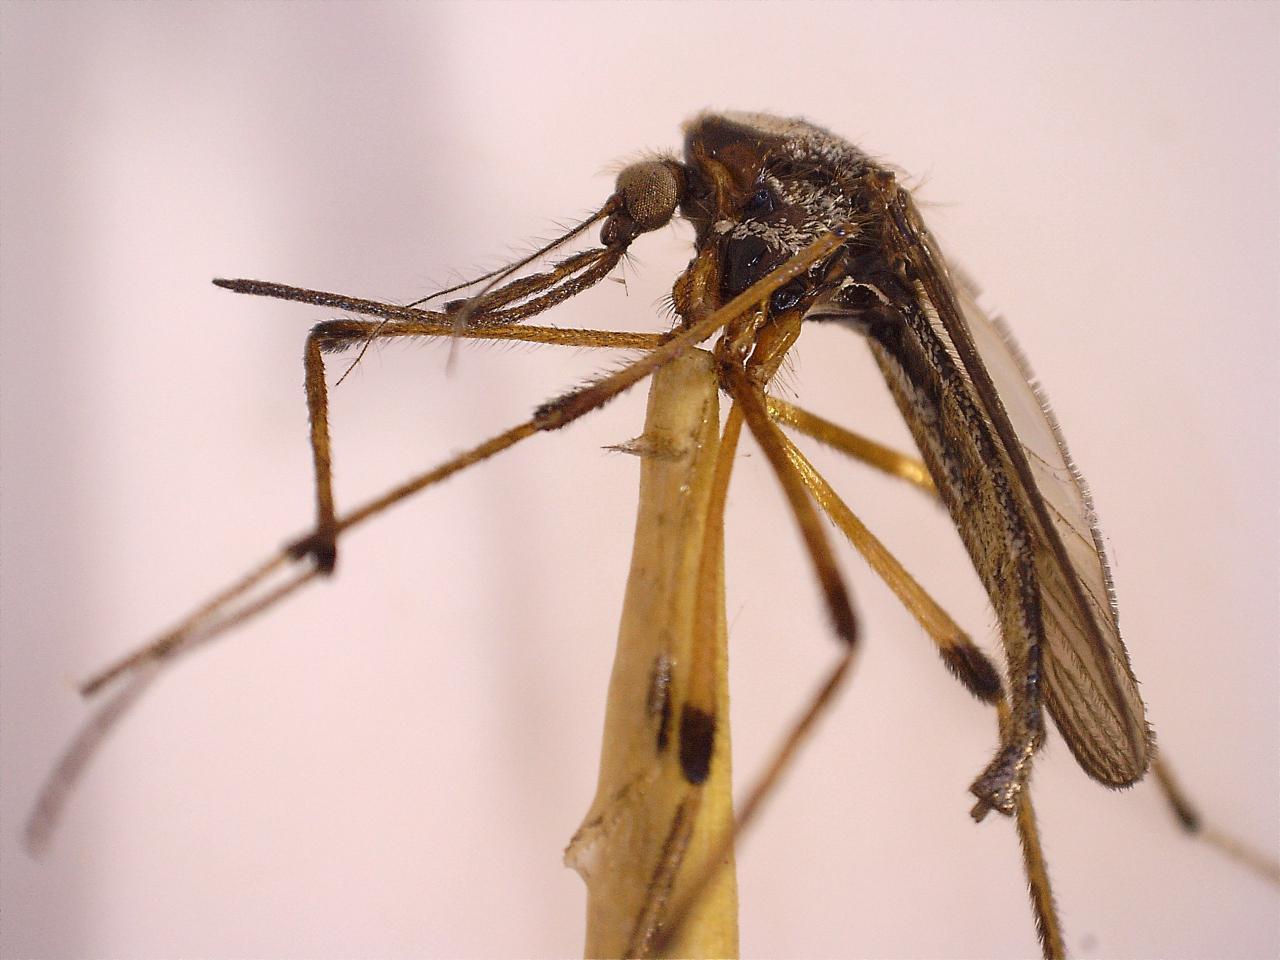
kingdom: Animalia
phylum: Arthropoda
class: Insecta
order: Diptera
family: Culicidae
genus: Psorophora
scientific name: Psorophora howardii
